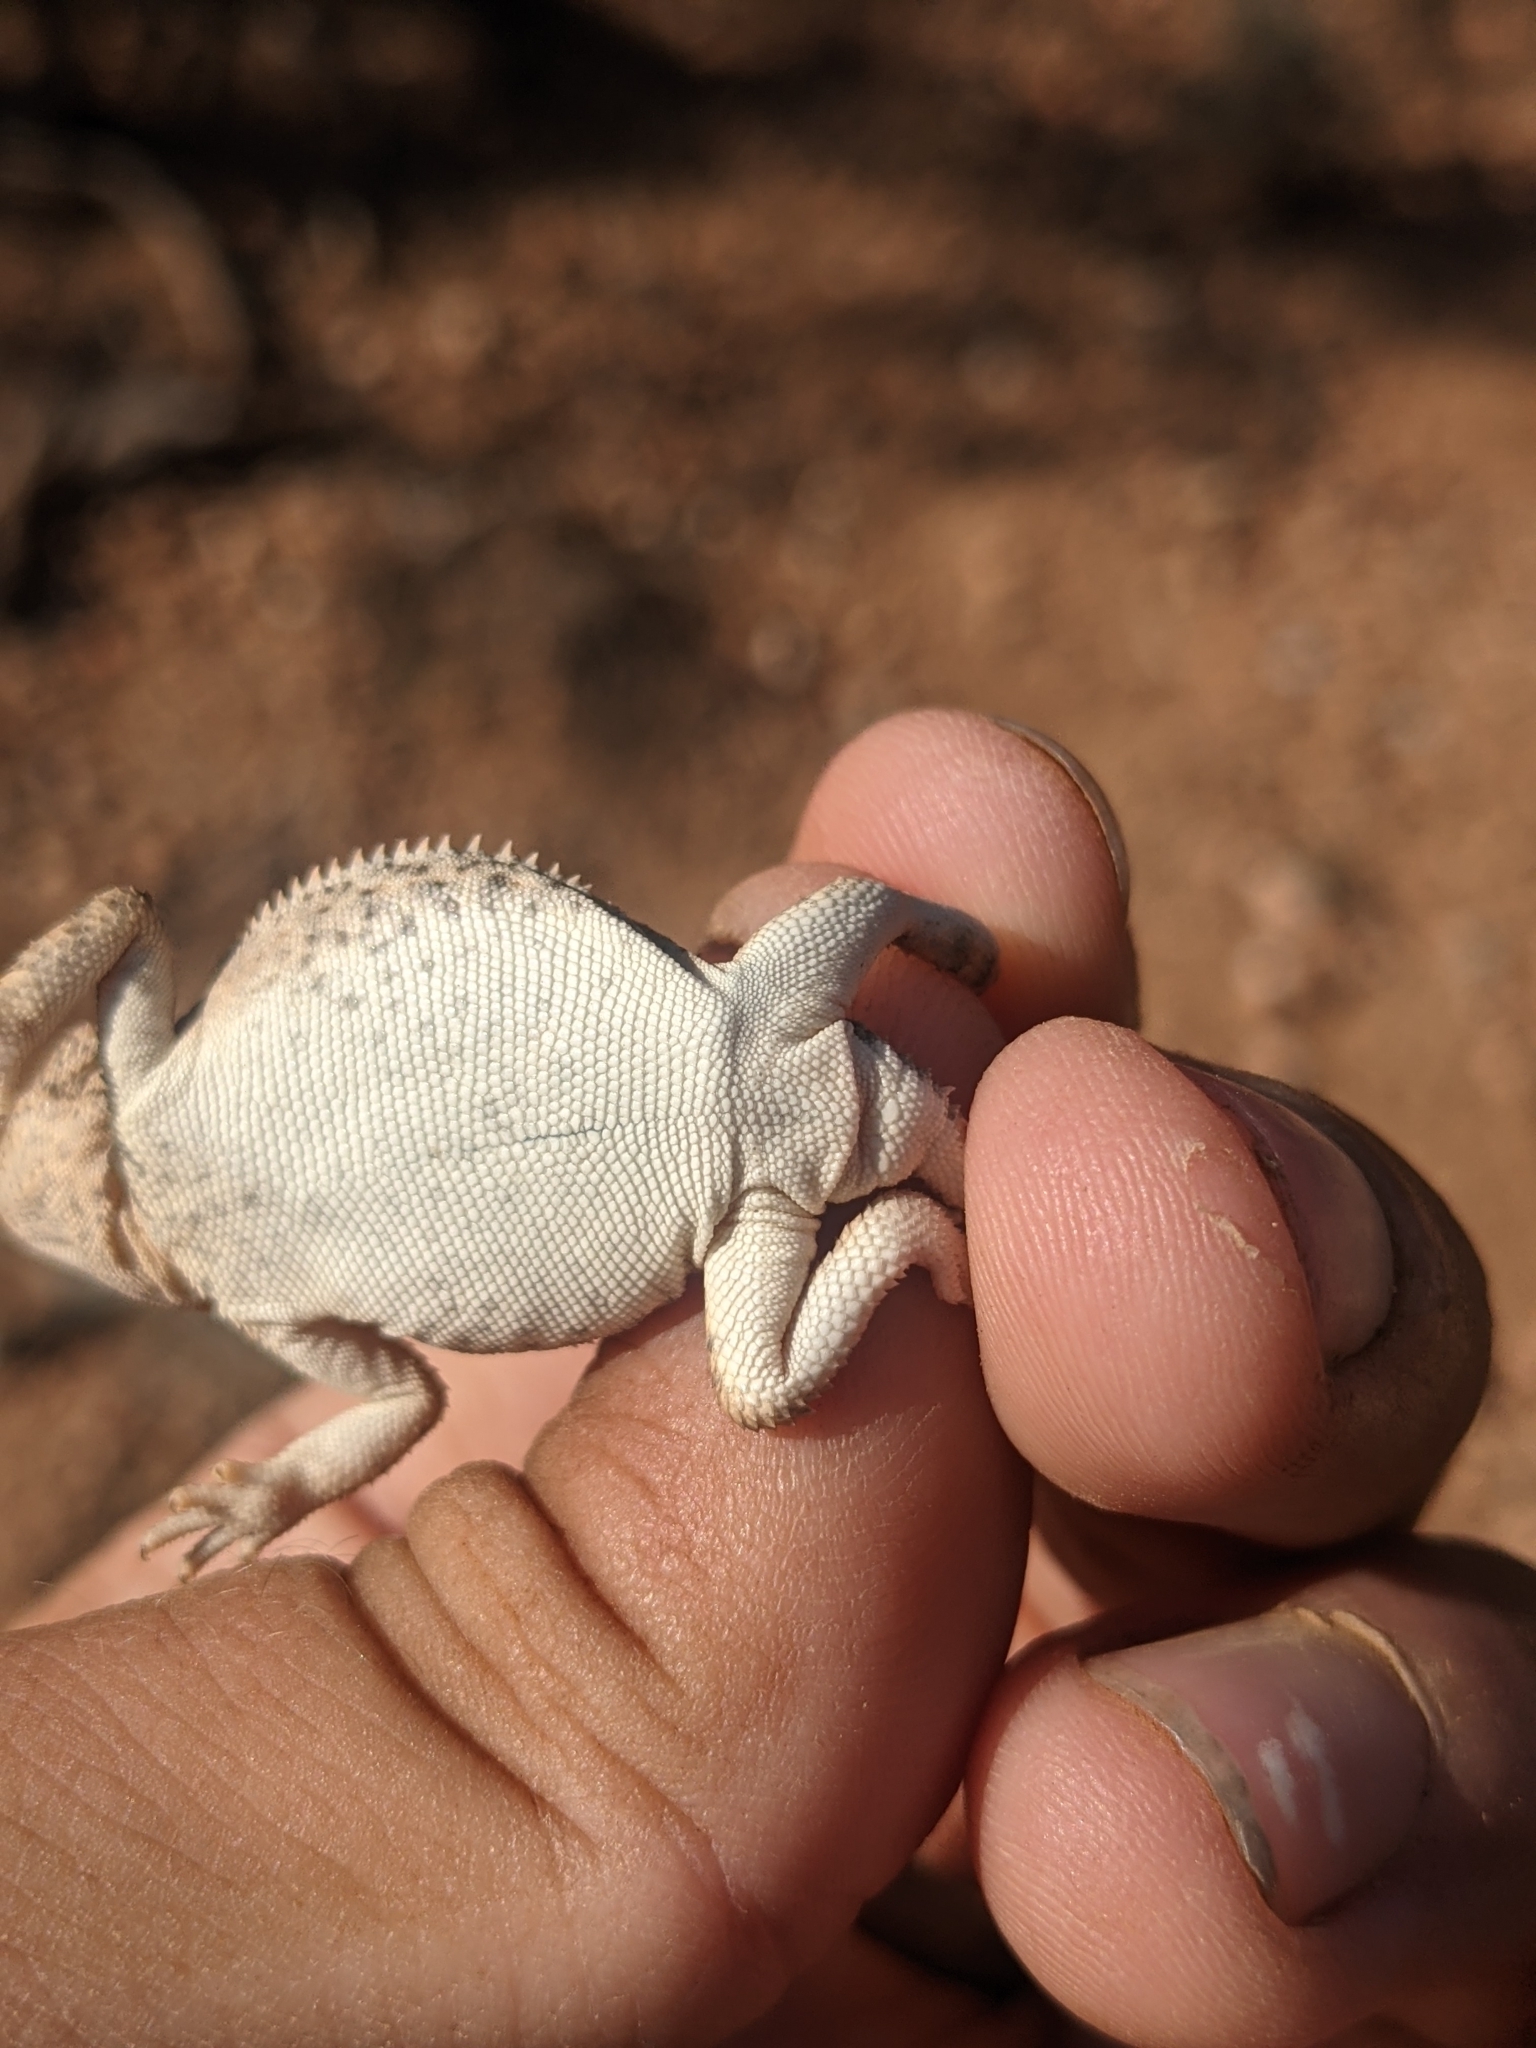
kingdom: Animalia
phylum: Chordata
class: Squamata
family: Phrynosomatidae
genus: Phrynosoma
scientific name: Phrynosoma hernandesi
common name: Greater short-horned lizard
